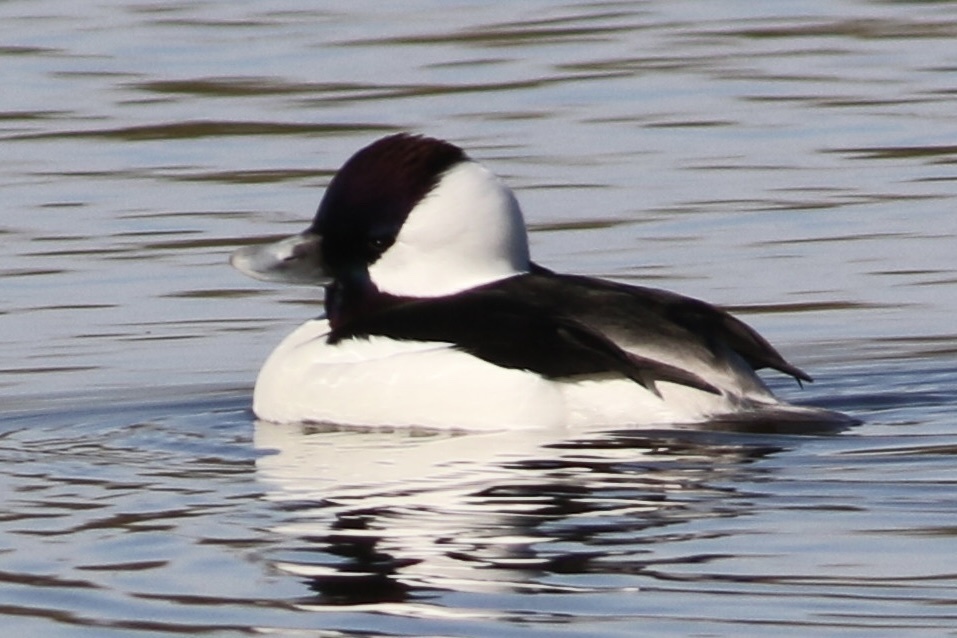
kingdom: Animalia
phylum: Chordata
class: Aves
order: Anseriformes
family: Anatidae
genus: Bucephala
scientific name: Bucephala albeola
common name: Bufflehead
